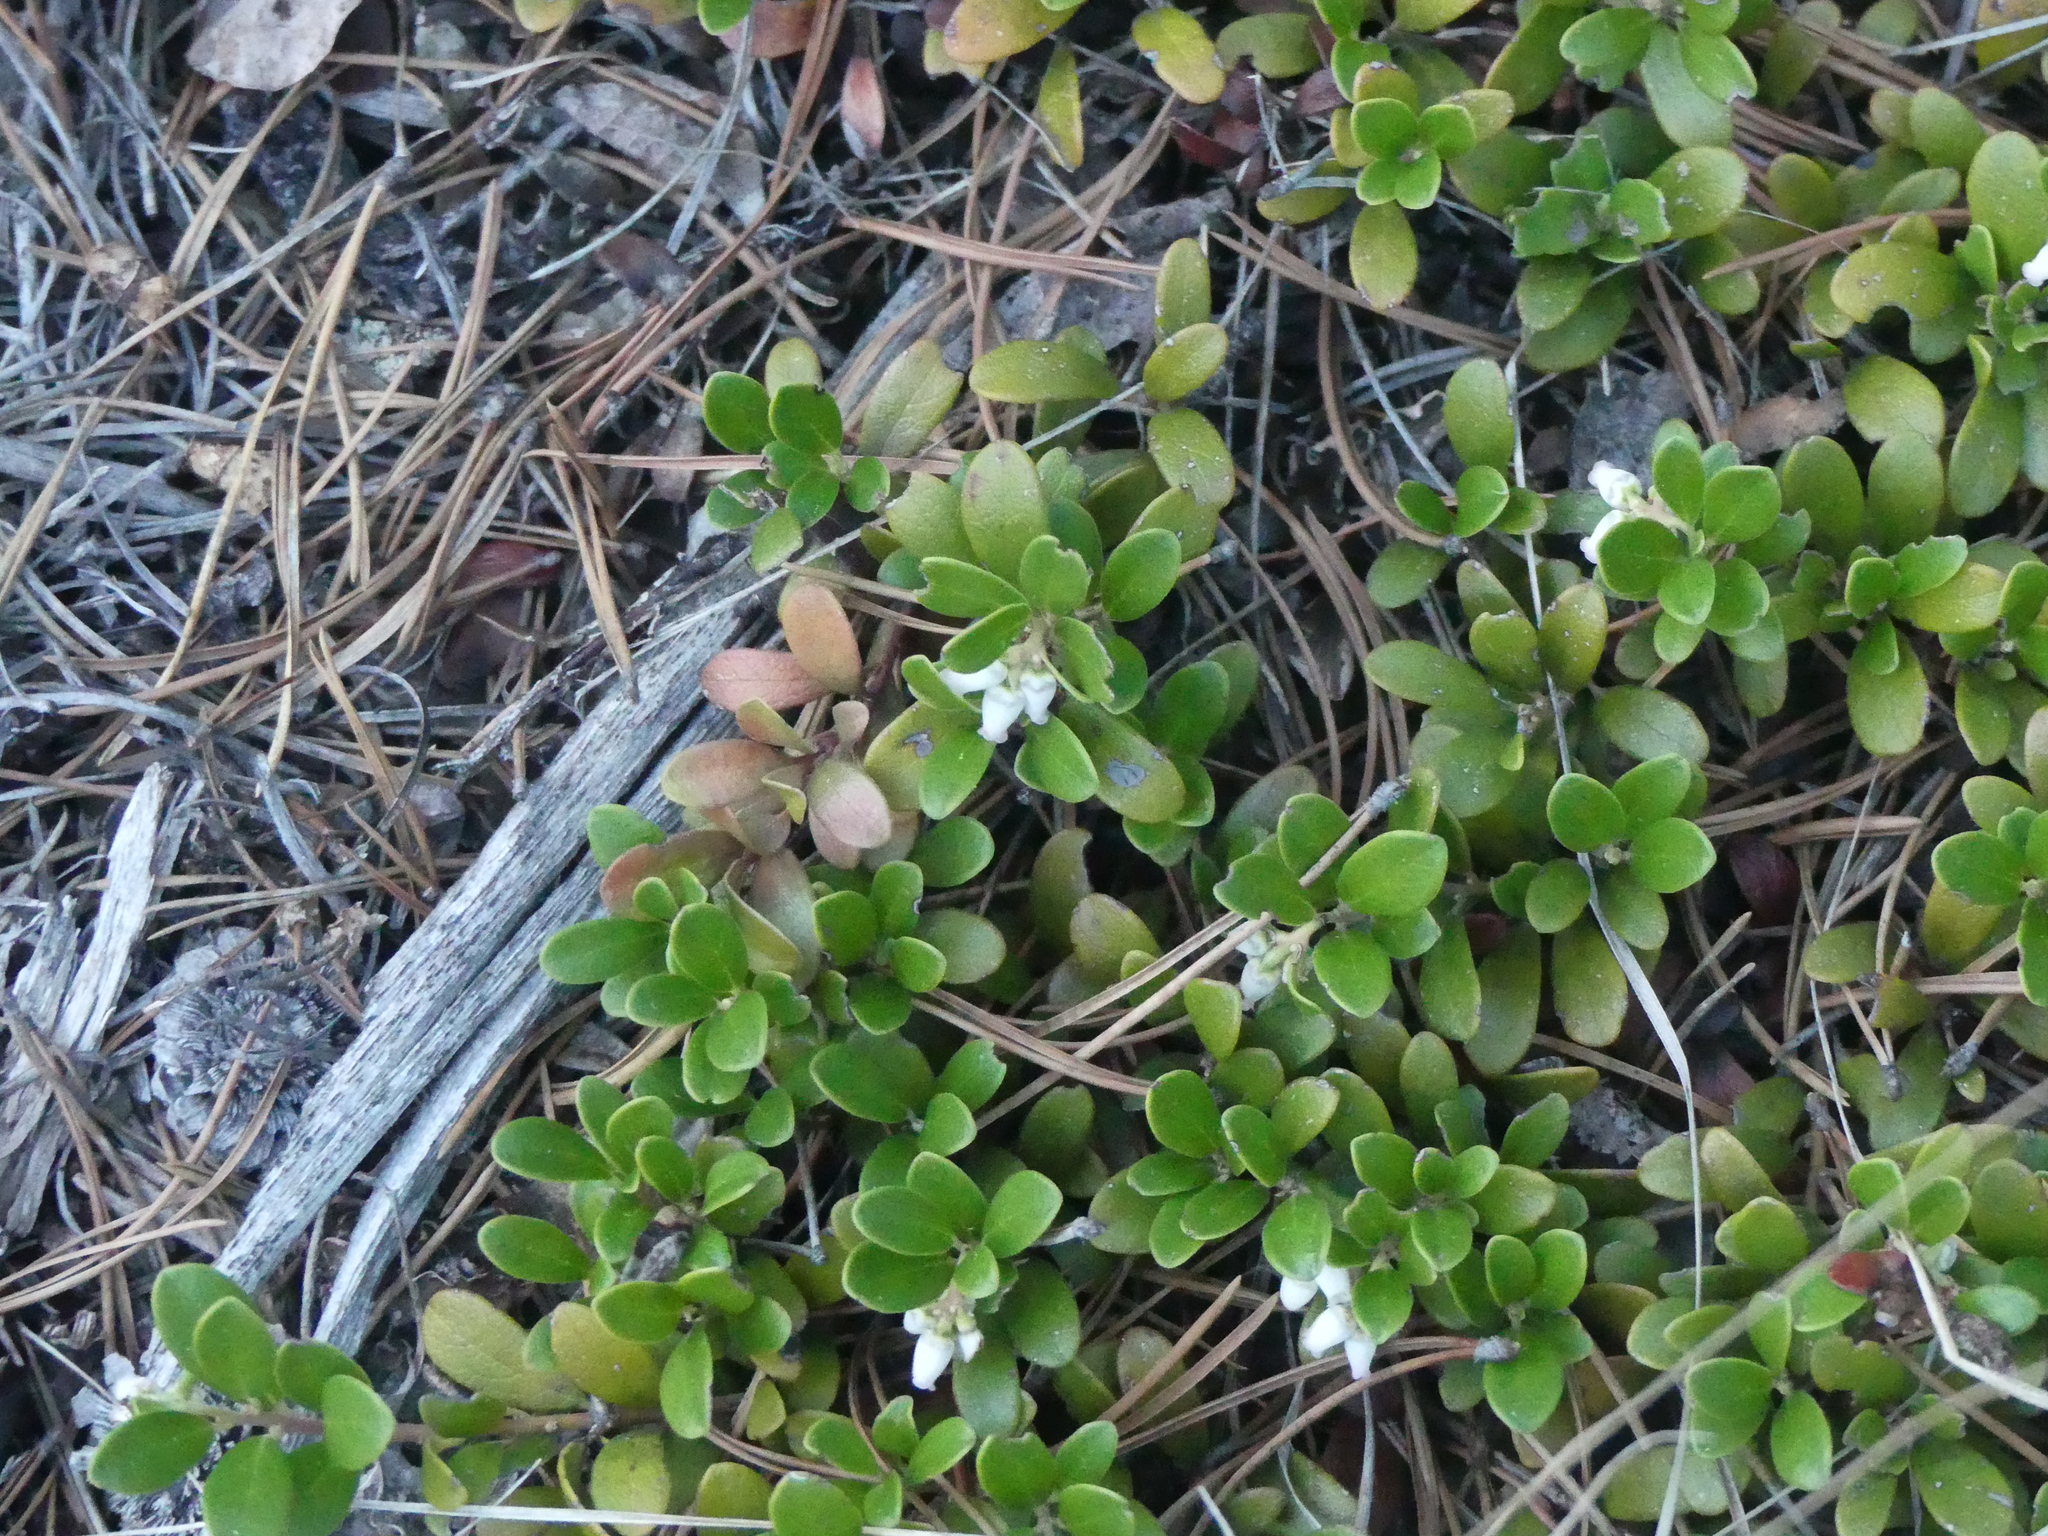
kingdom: Plantae
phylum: Tracheophyta
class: Magnoliopsida
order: Ericales
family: Ericaceae
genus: Arctostaphylos
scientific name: Arctostaphylos uva-ursi
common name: Bearberry
